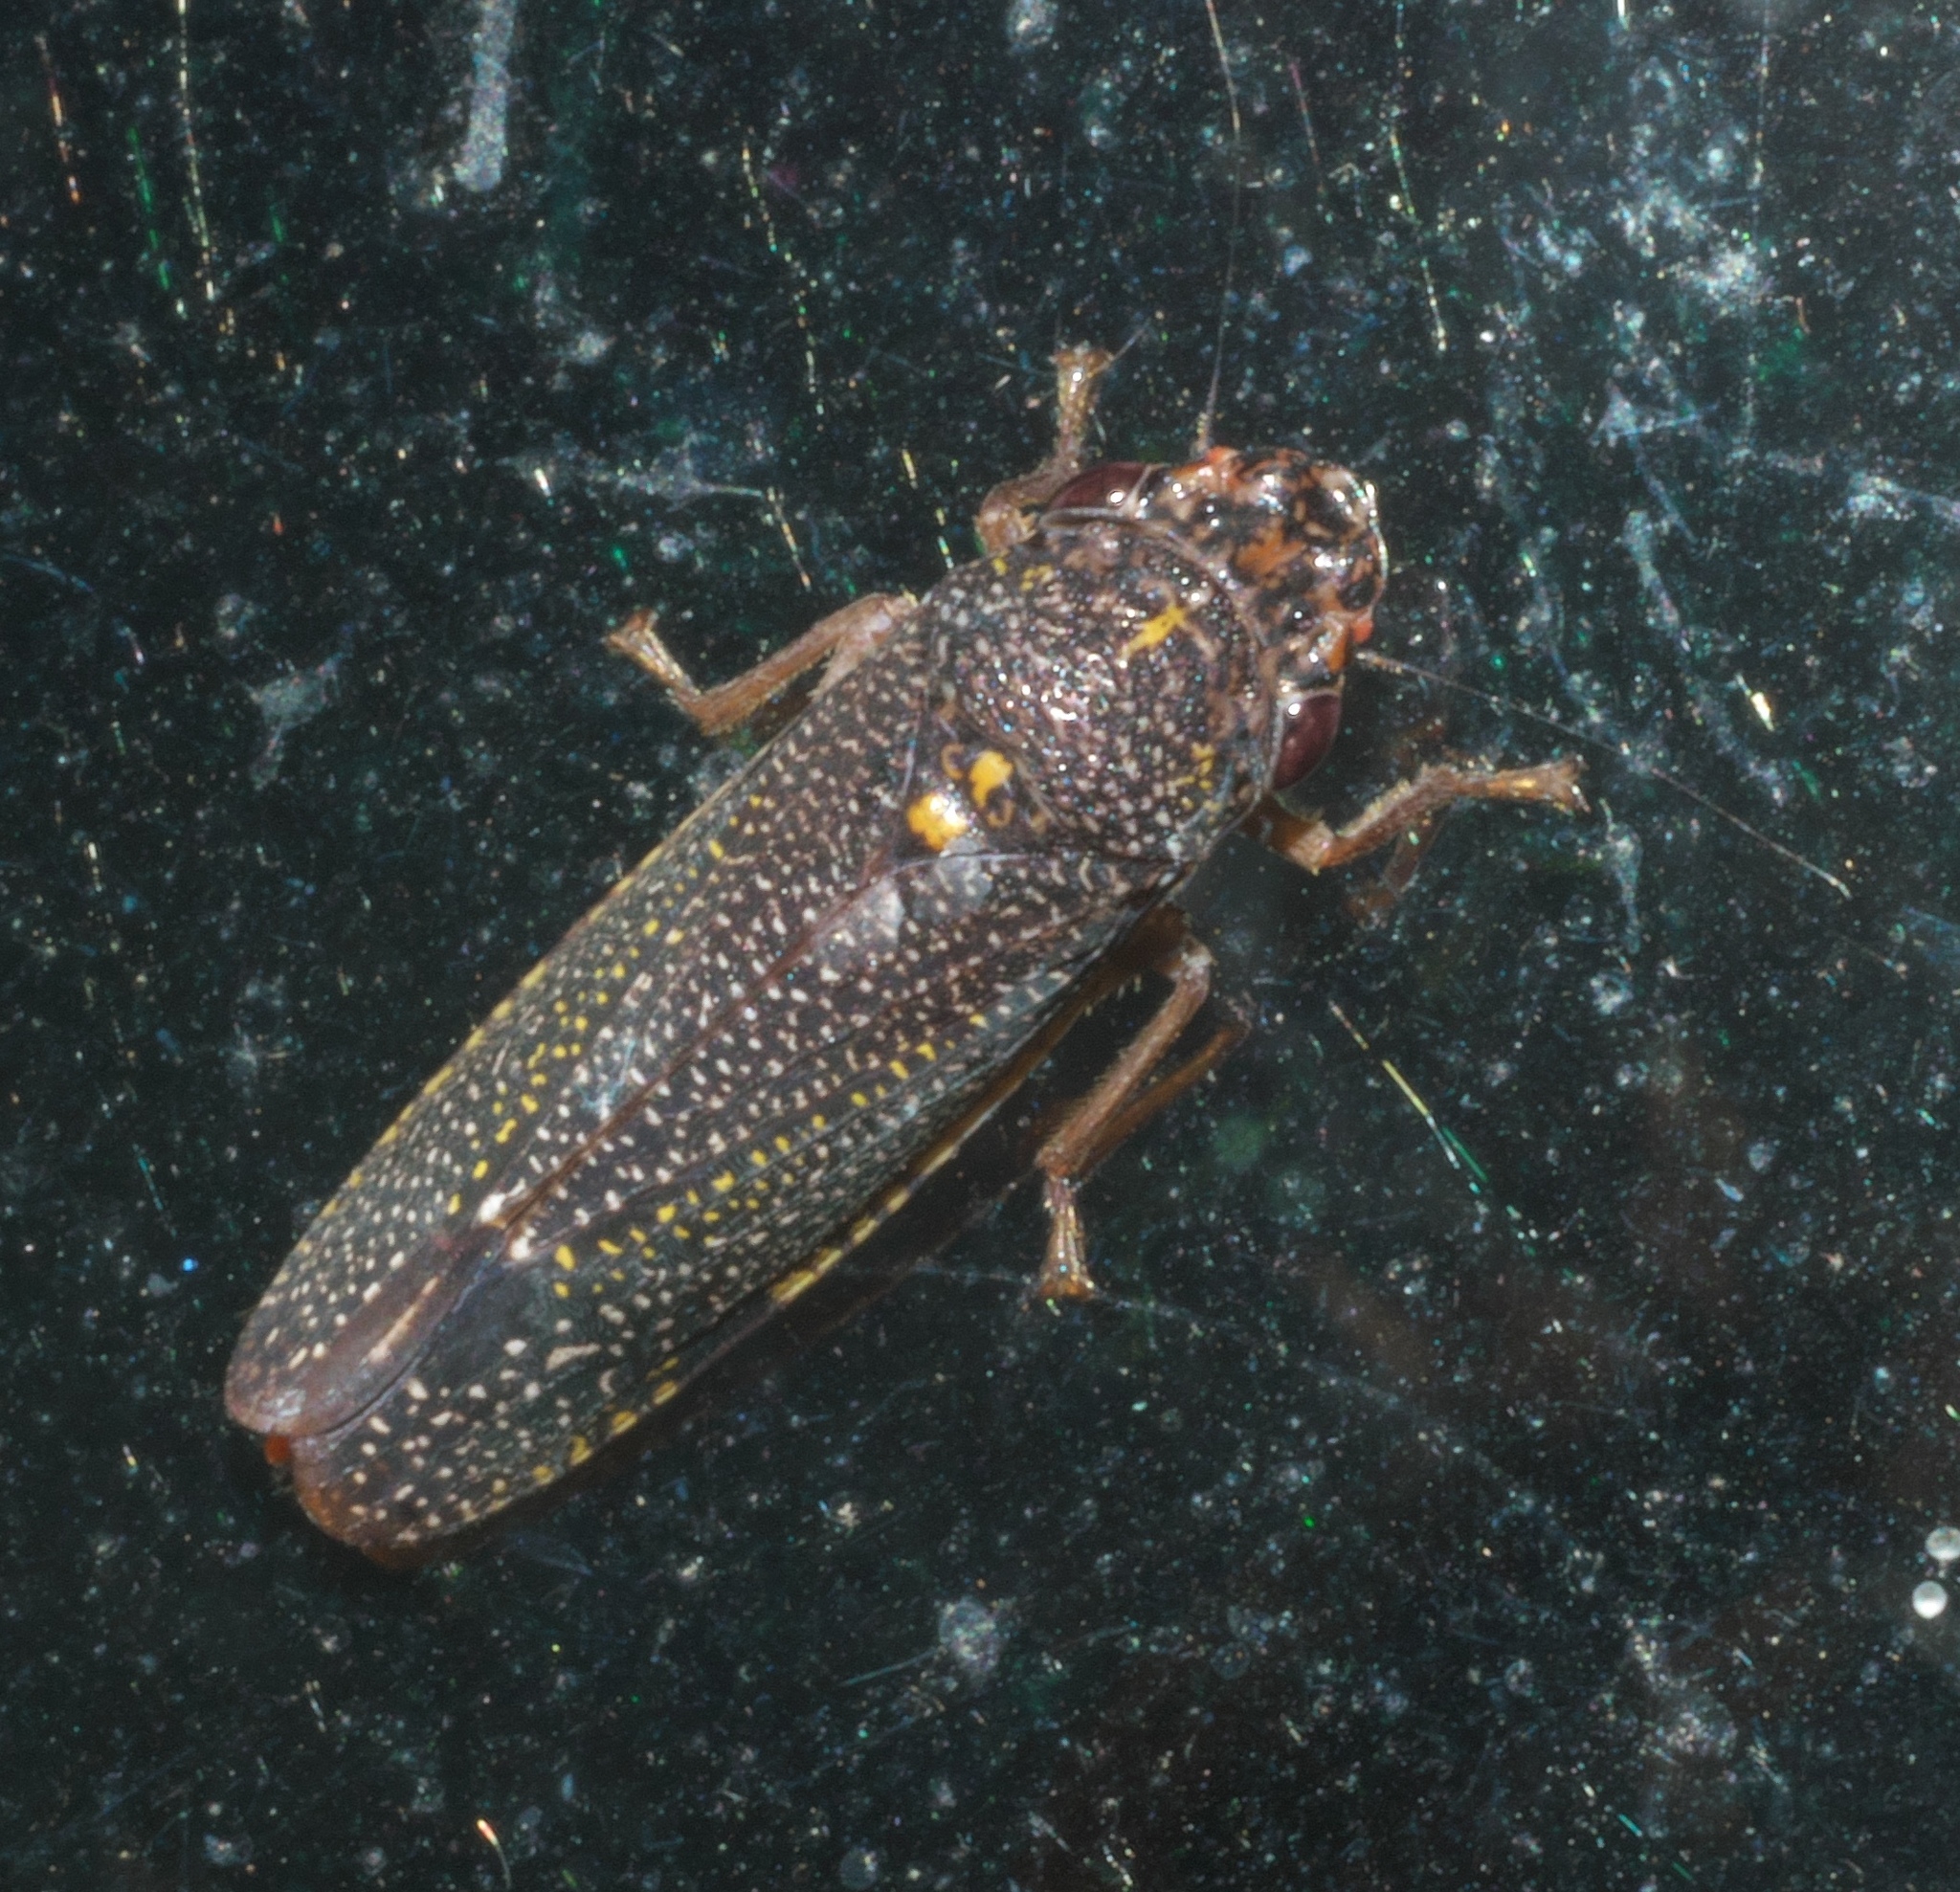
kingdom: Animalia
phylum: Arthropoda
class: Insecta
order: Hemiptera
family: Cicadellidae
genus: Paraulacizes
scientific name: Paraulacizes irrorata
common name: Speckled sharpshooter
